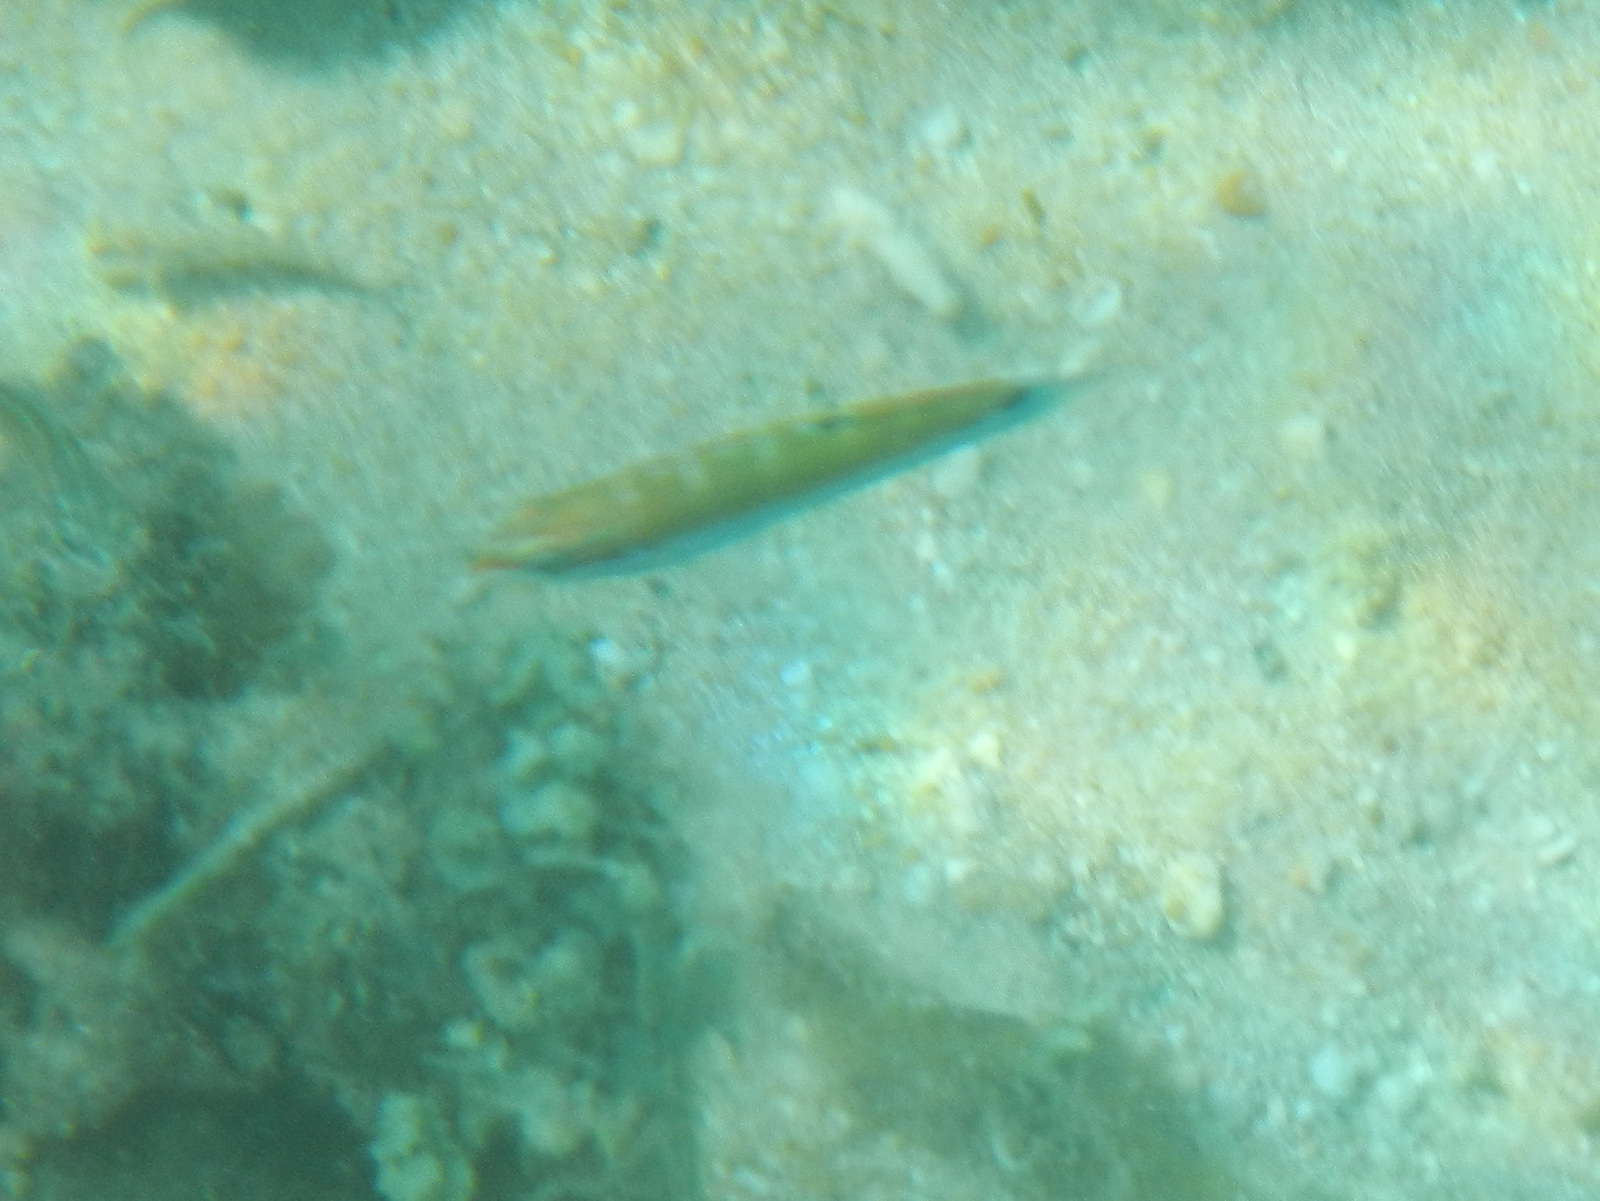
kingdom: Animalia
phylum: Chordata
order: Perciformes
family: Labridae
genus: Thalassoma
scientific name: Thalassoma lunare
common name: Blue wrasse
